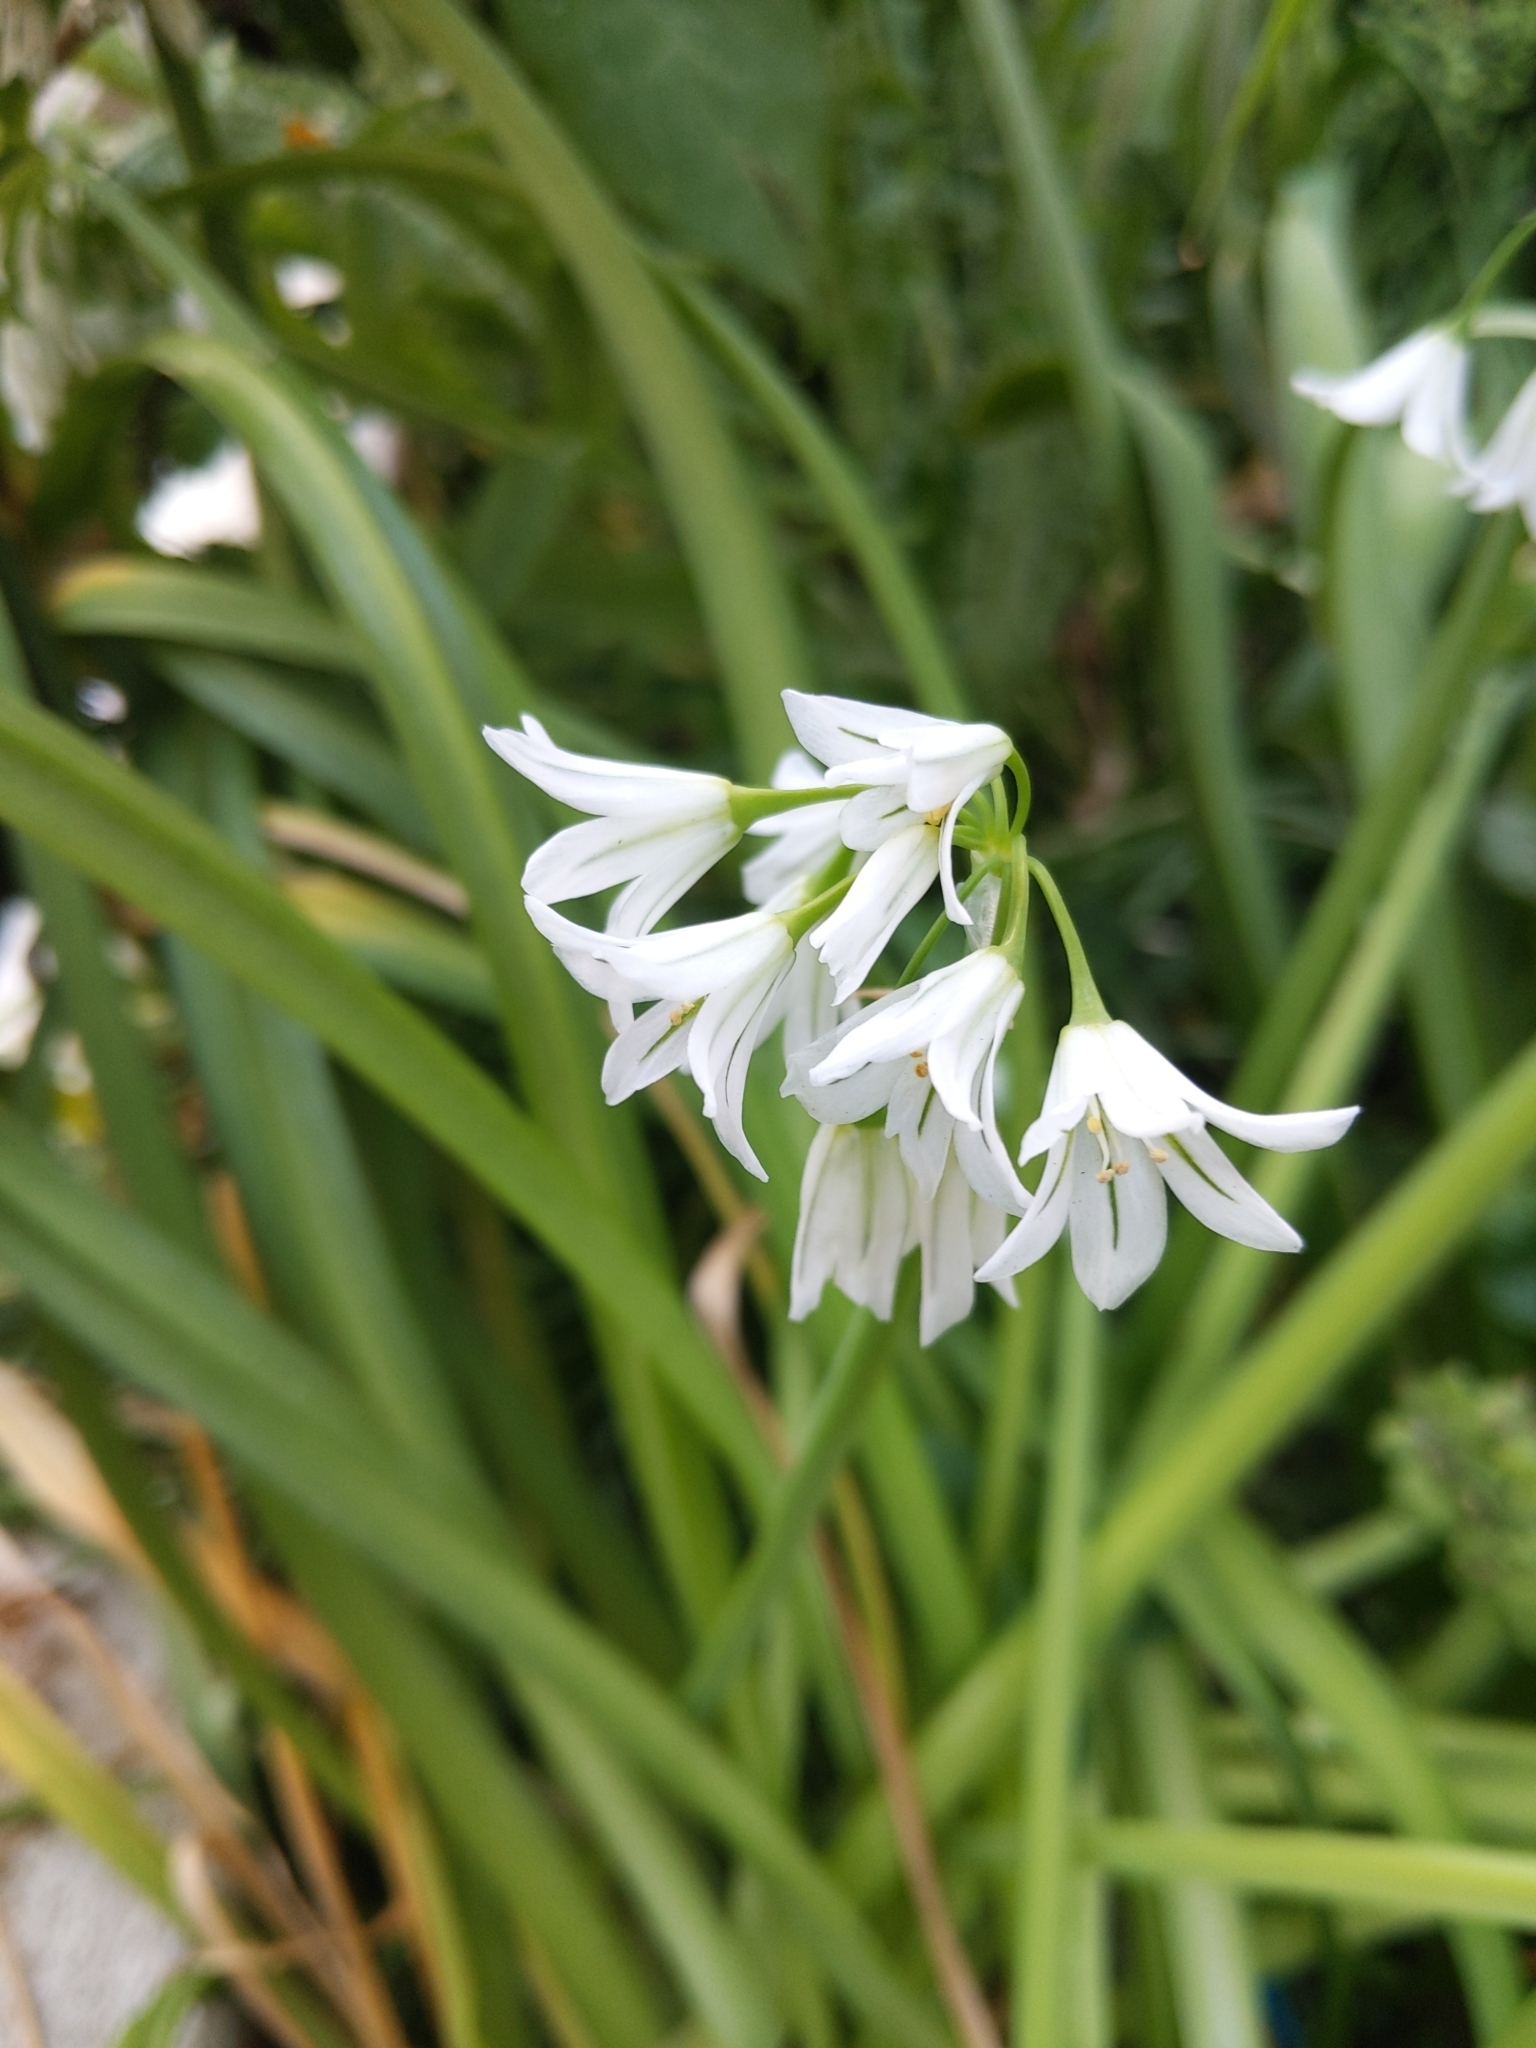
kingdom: Plantae
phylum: Tracheophyta
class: Liliopsida
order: Asparagales
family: Amaryllidaceae
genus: Allium
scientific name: Allium triquetrum
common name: Three-cornered garlic
